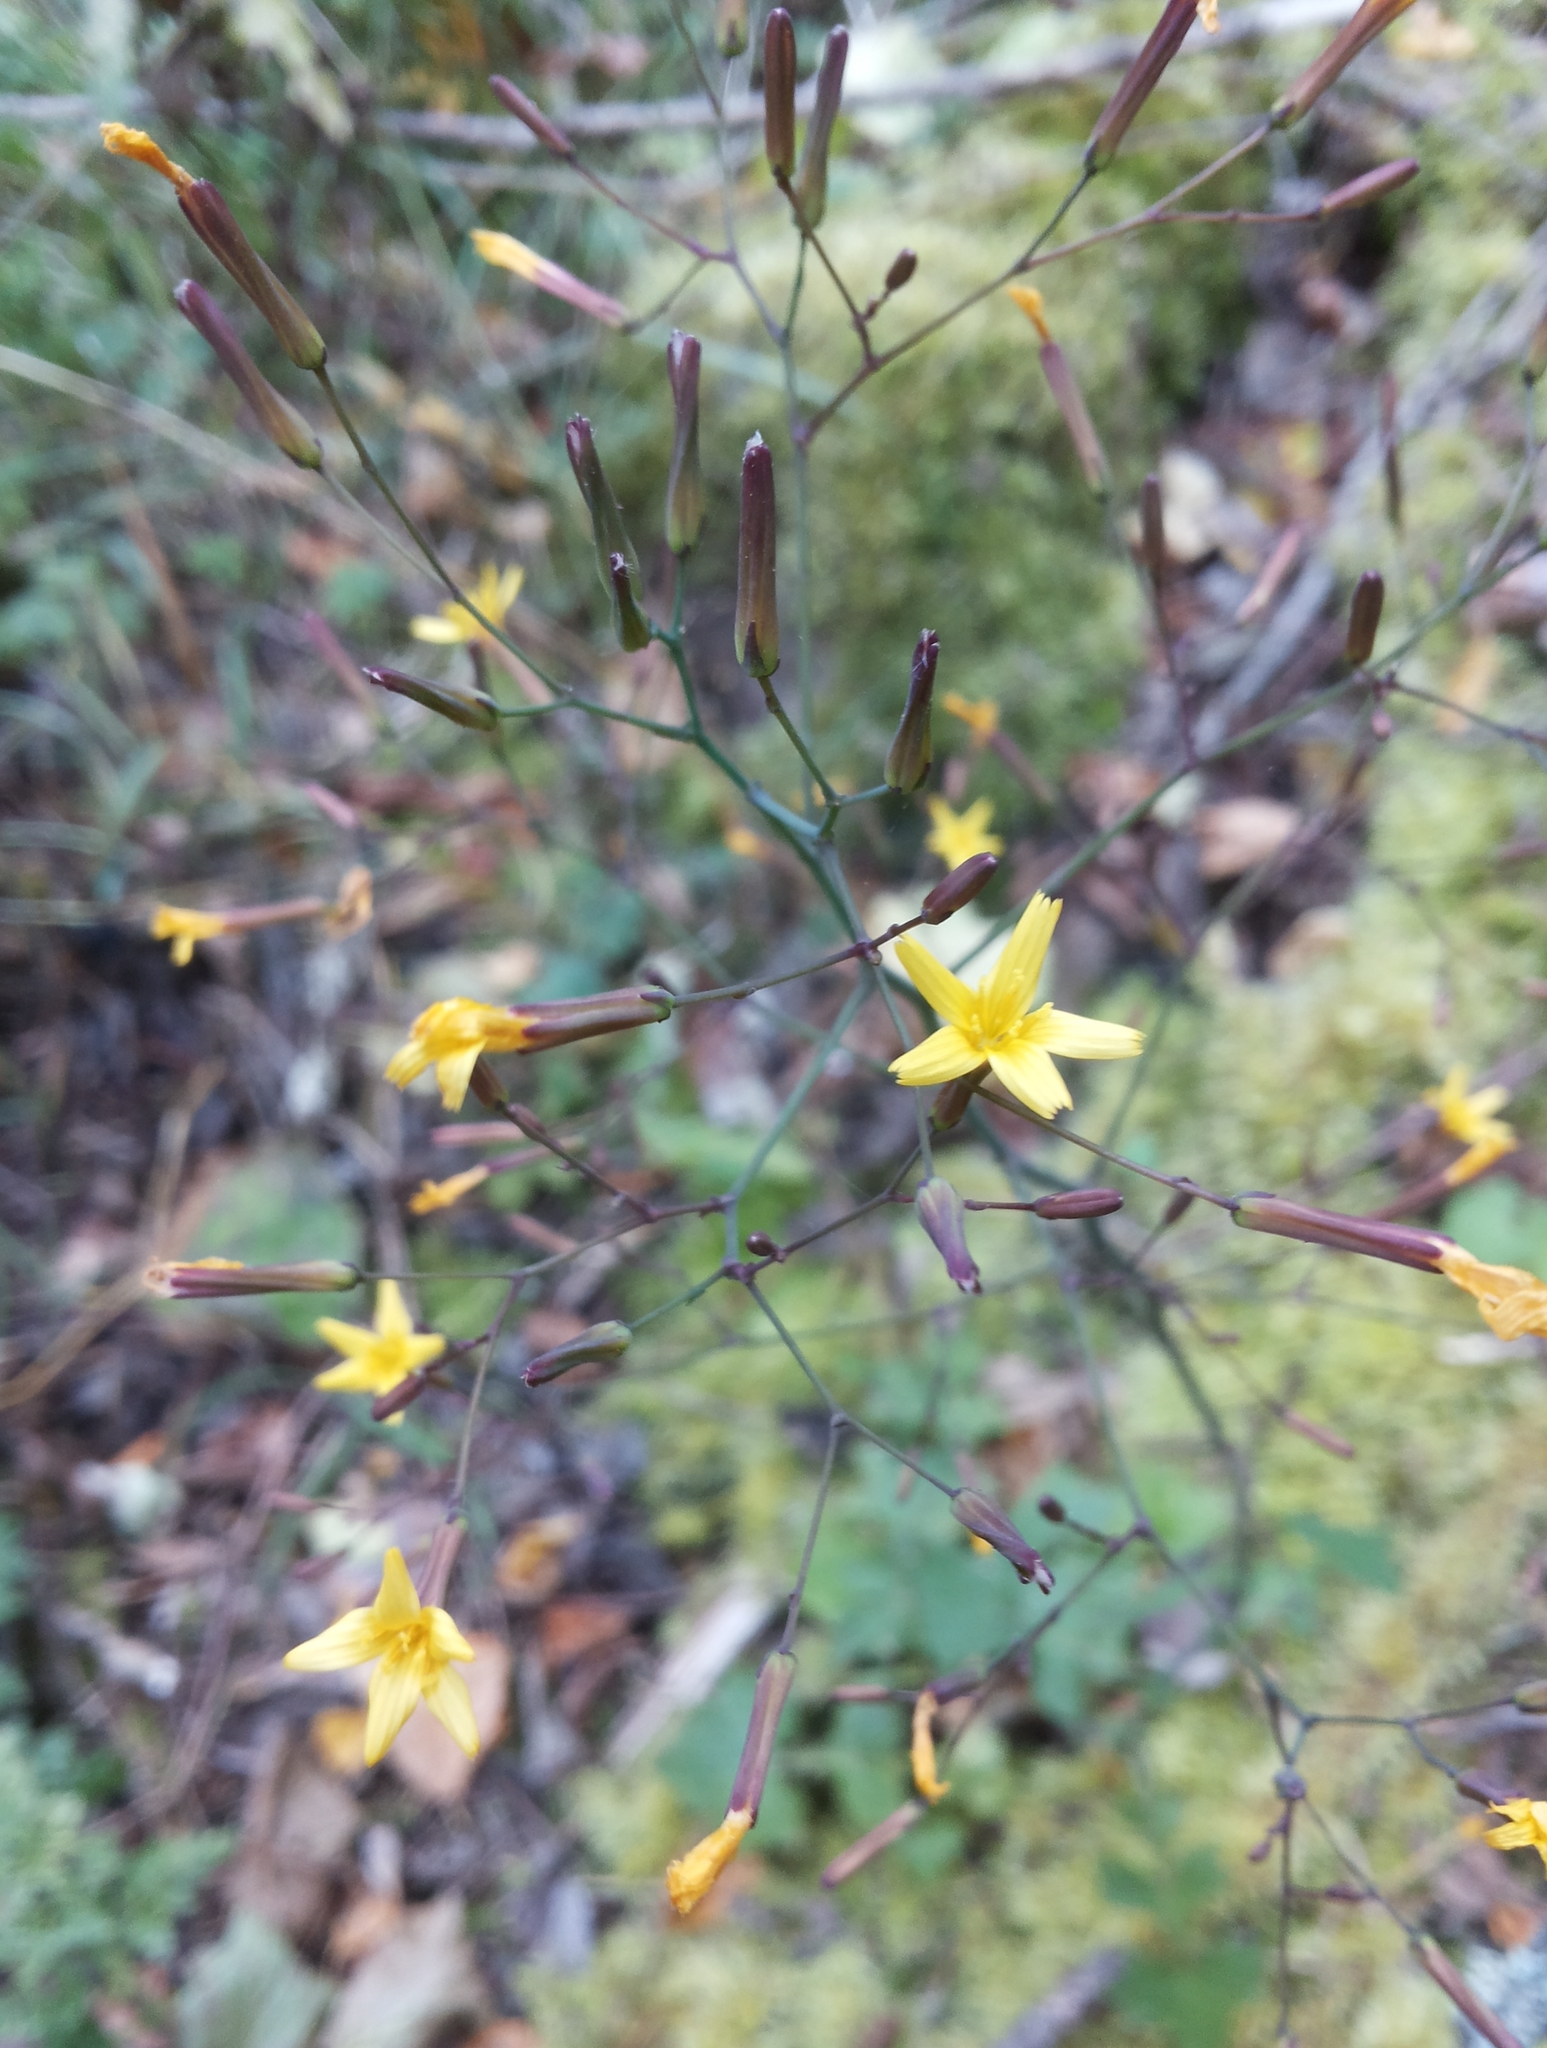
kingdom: Plantae
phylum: Tracheophyta
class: Magnoliopsida
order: Asterales
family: Asteraceae
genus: Mycelis
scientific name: Mycelis muralis
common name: Wall lettuce
